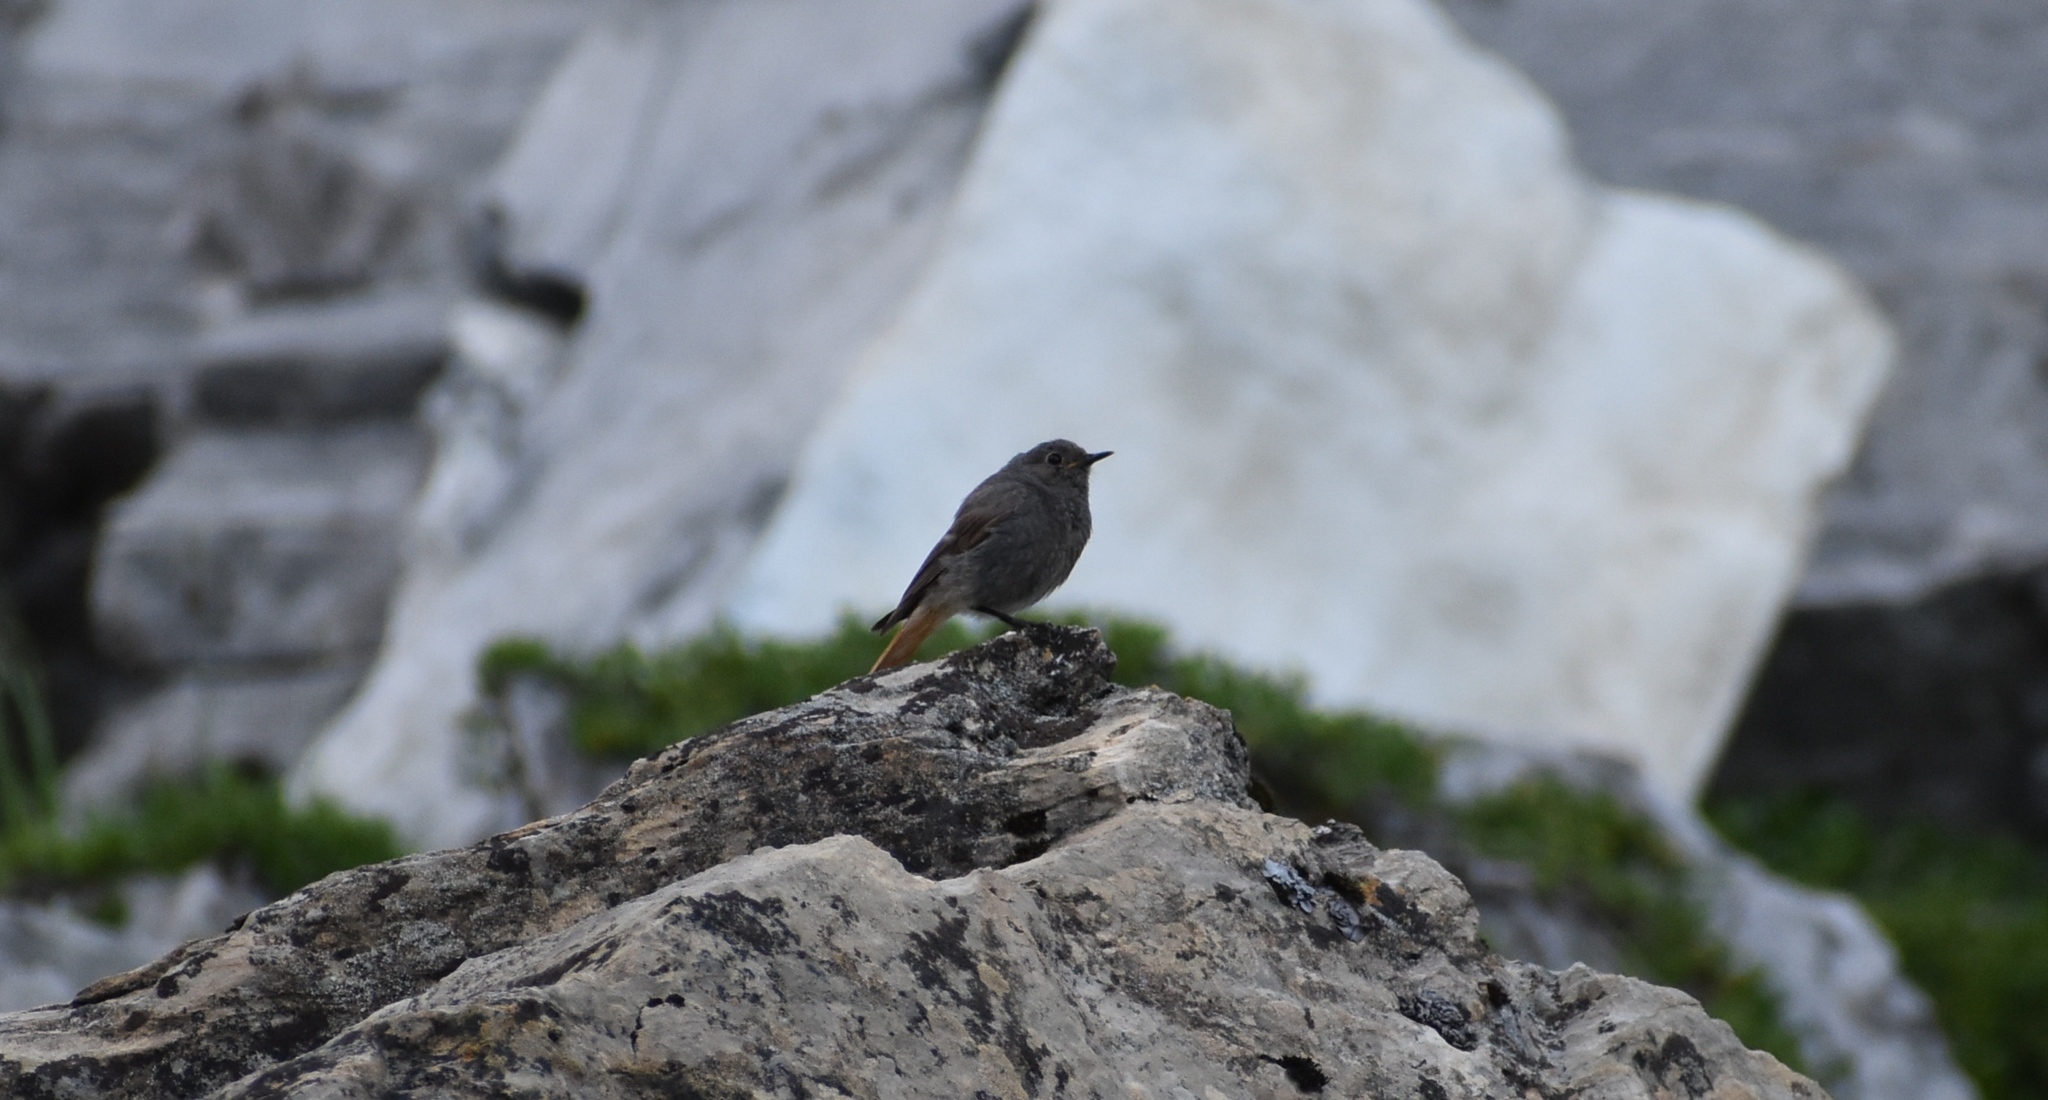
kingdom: Animalia
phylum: Chordata
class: Aves
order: Passeriformes
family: Muscicapidae
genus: Phoenicurus
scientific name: Phoenicurus ochruros
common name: Black redstart
